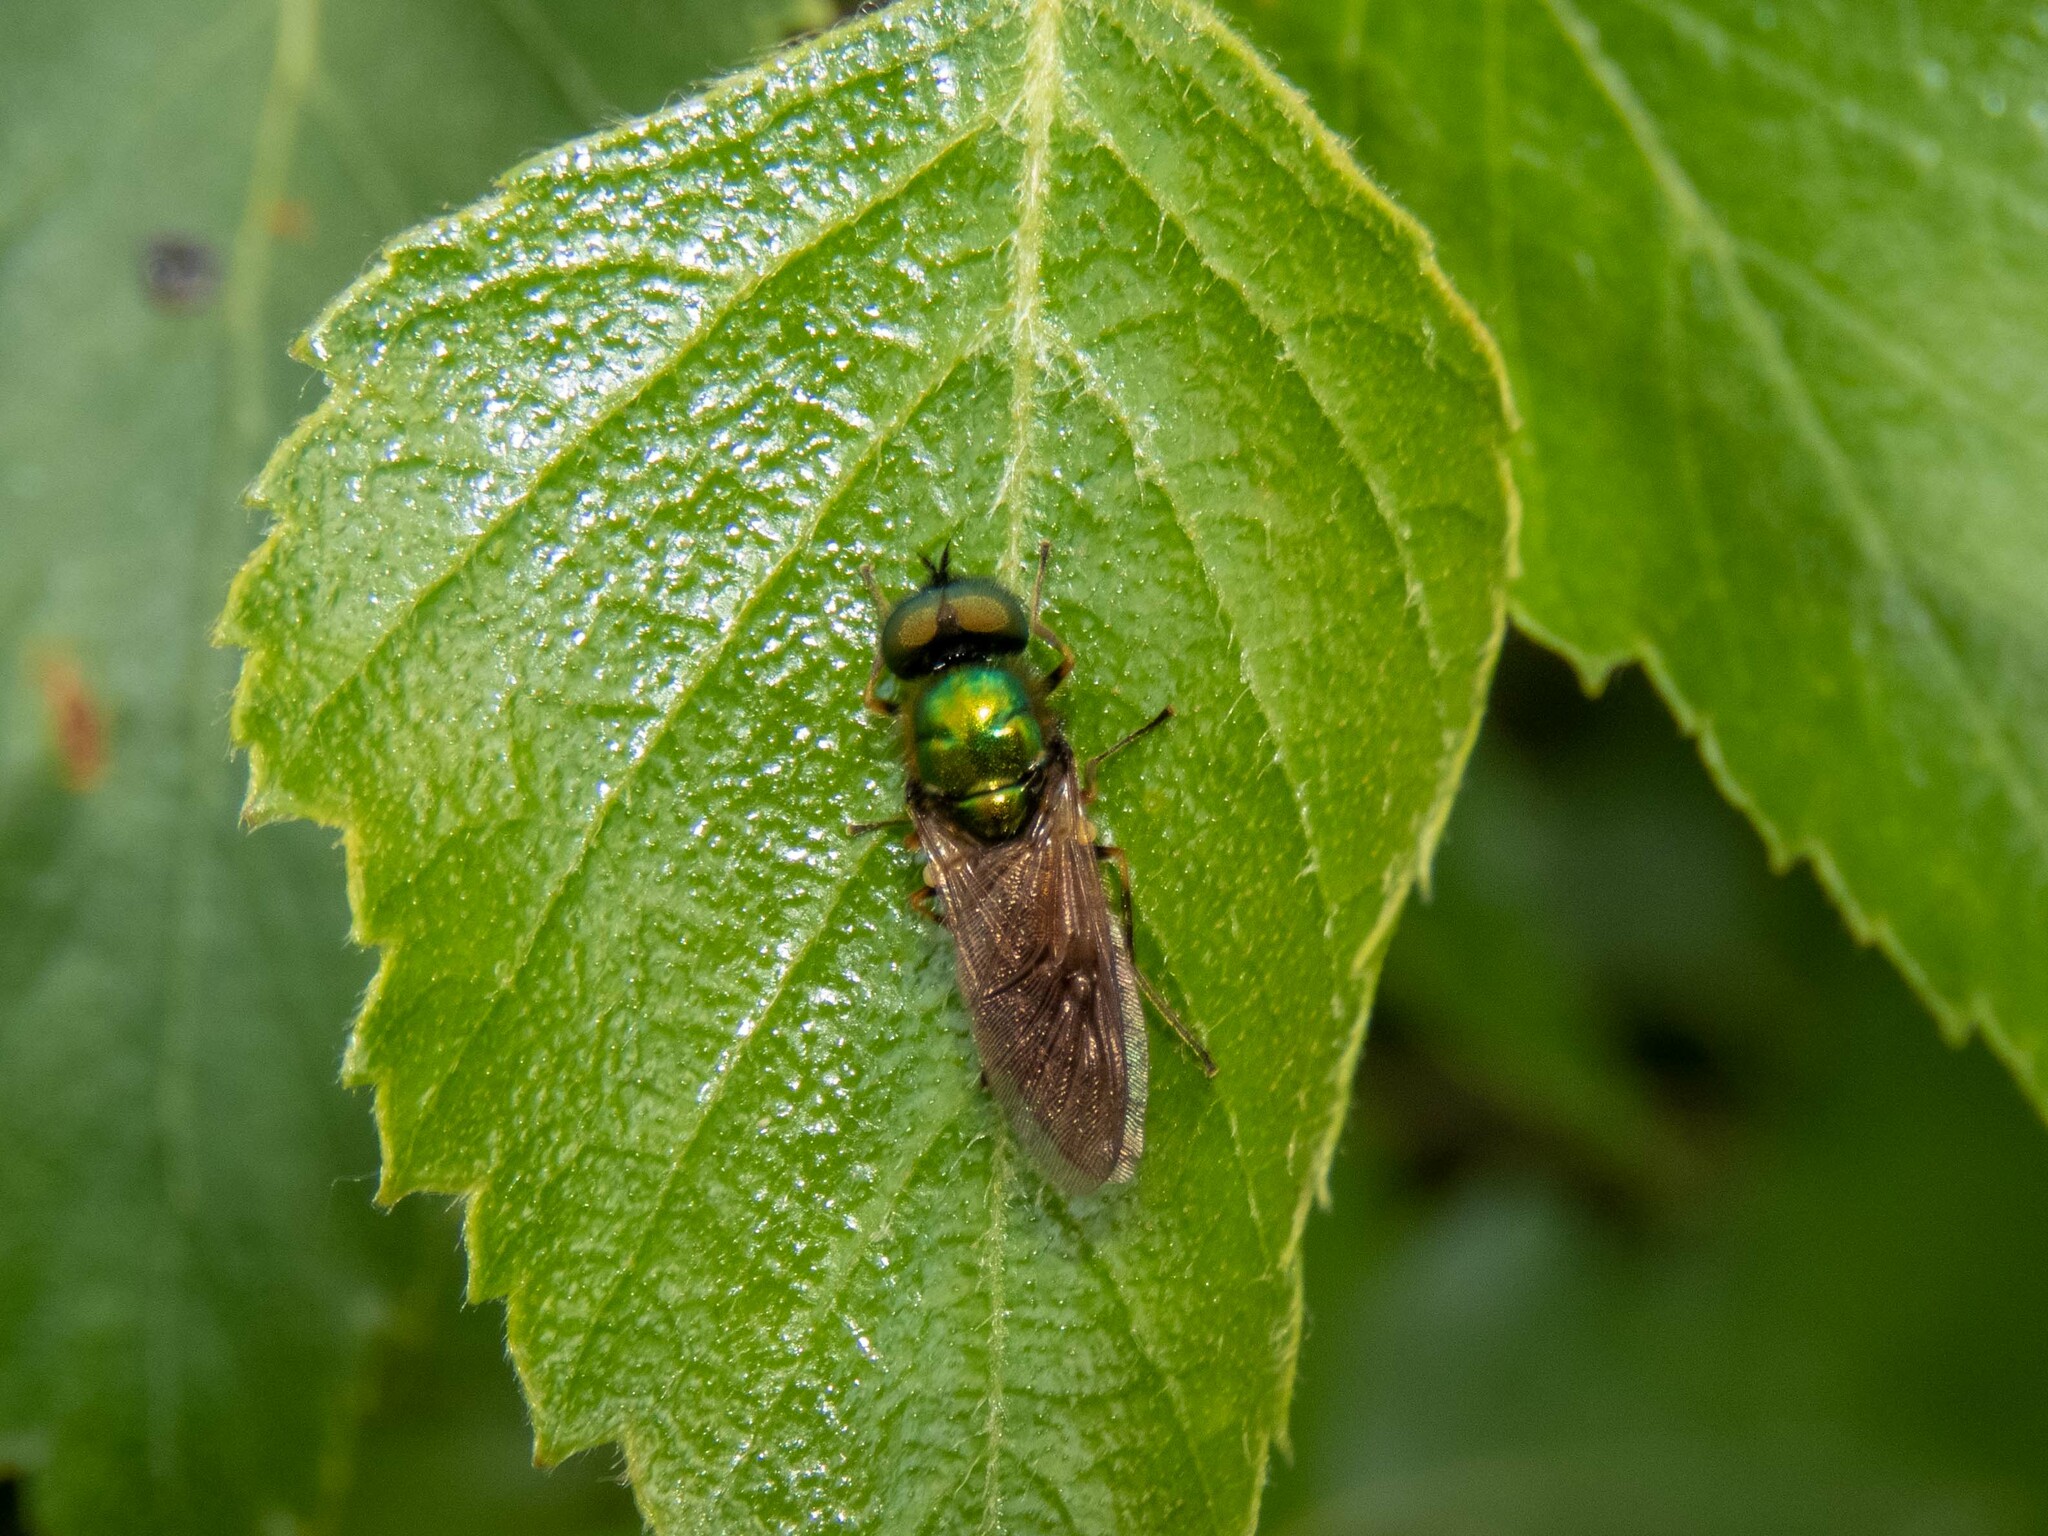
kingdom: Animalia
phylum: Arthropoda
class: Insecta
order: Diptera
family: Stratiomyidae
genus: Chloromyia
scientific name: Chloromyia formosa
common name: Soldier fly
